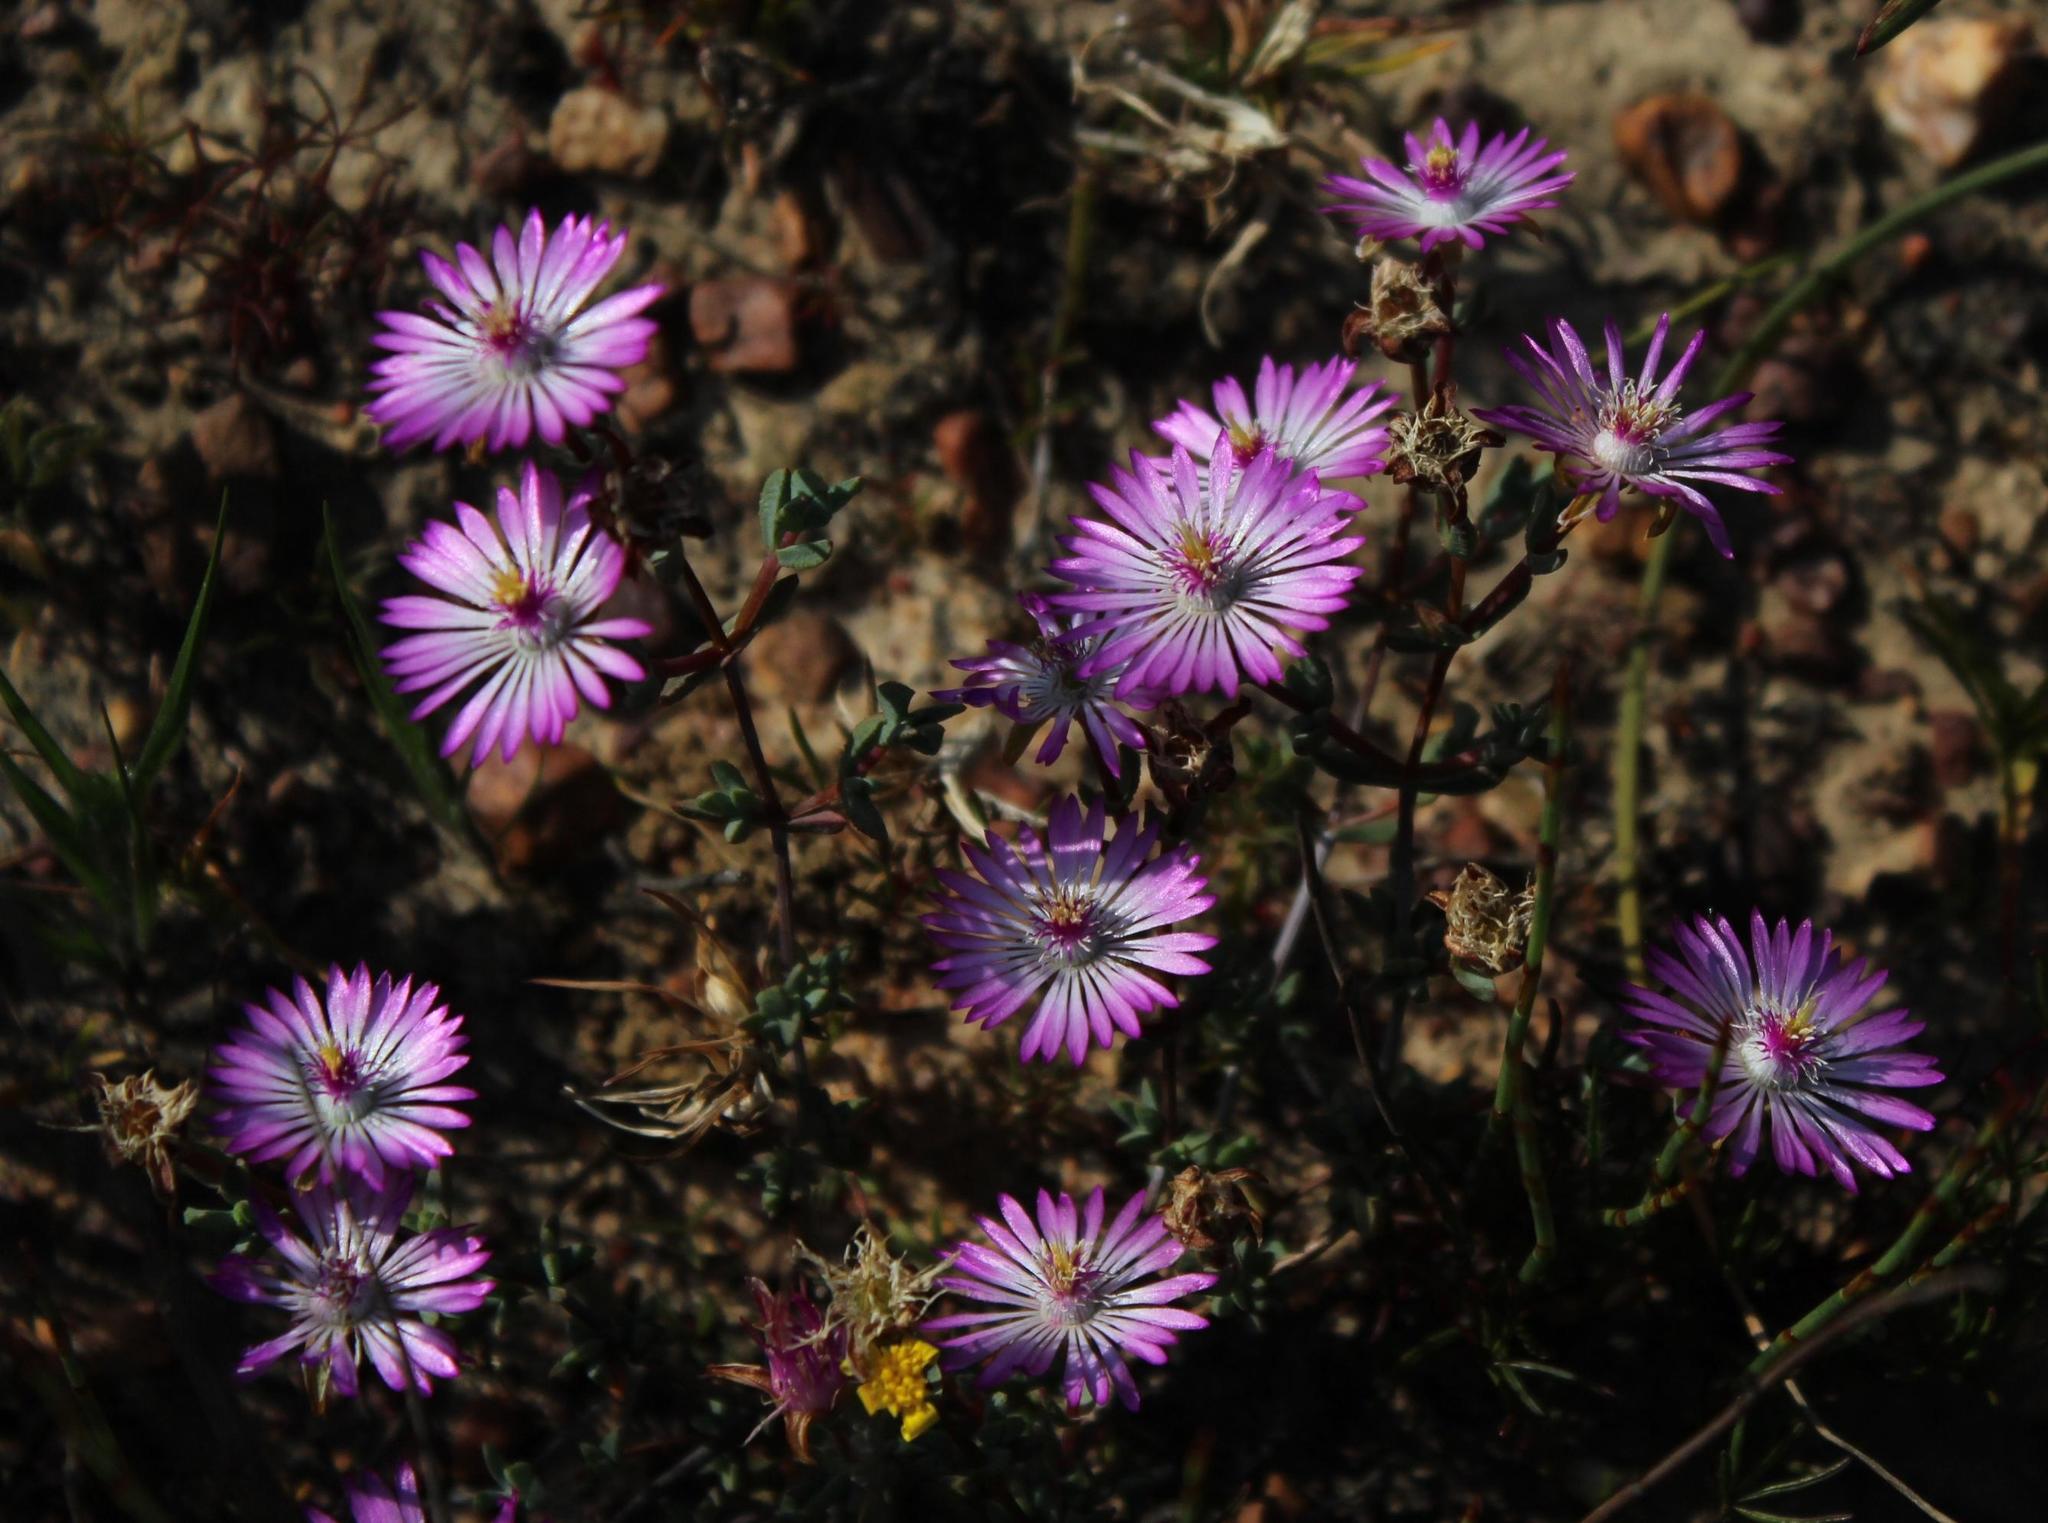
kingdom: Plantae
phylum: Tracheophyta
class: Magnoliopsida
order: Caryophyllales
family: Aizoaceae
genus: Lampranthus
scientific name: Lampranthus elegans
